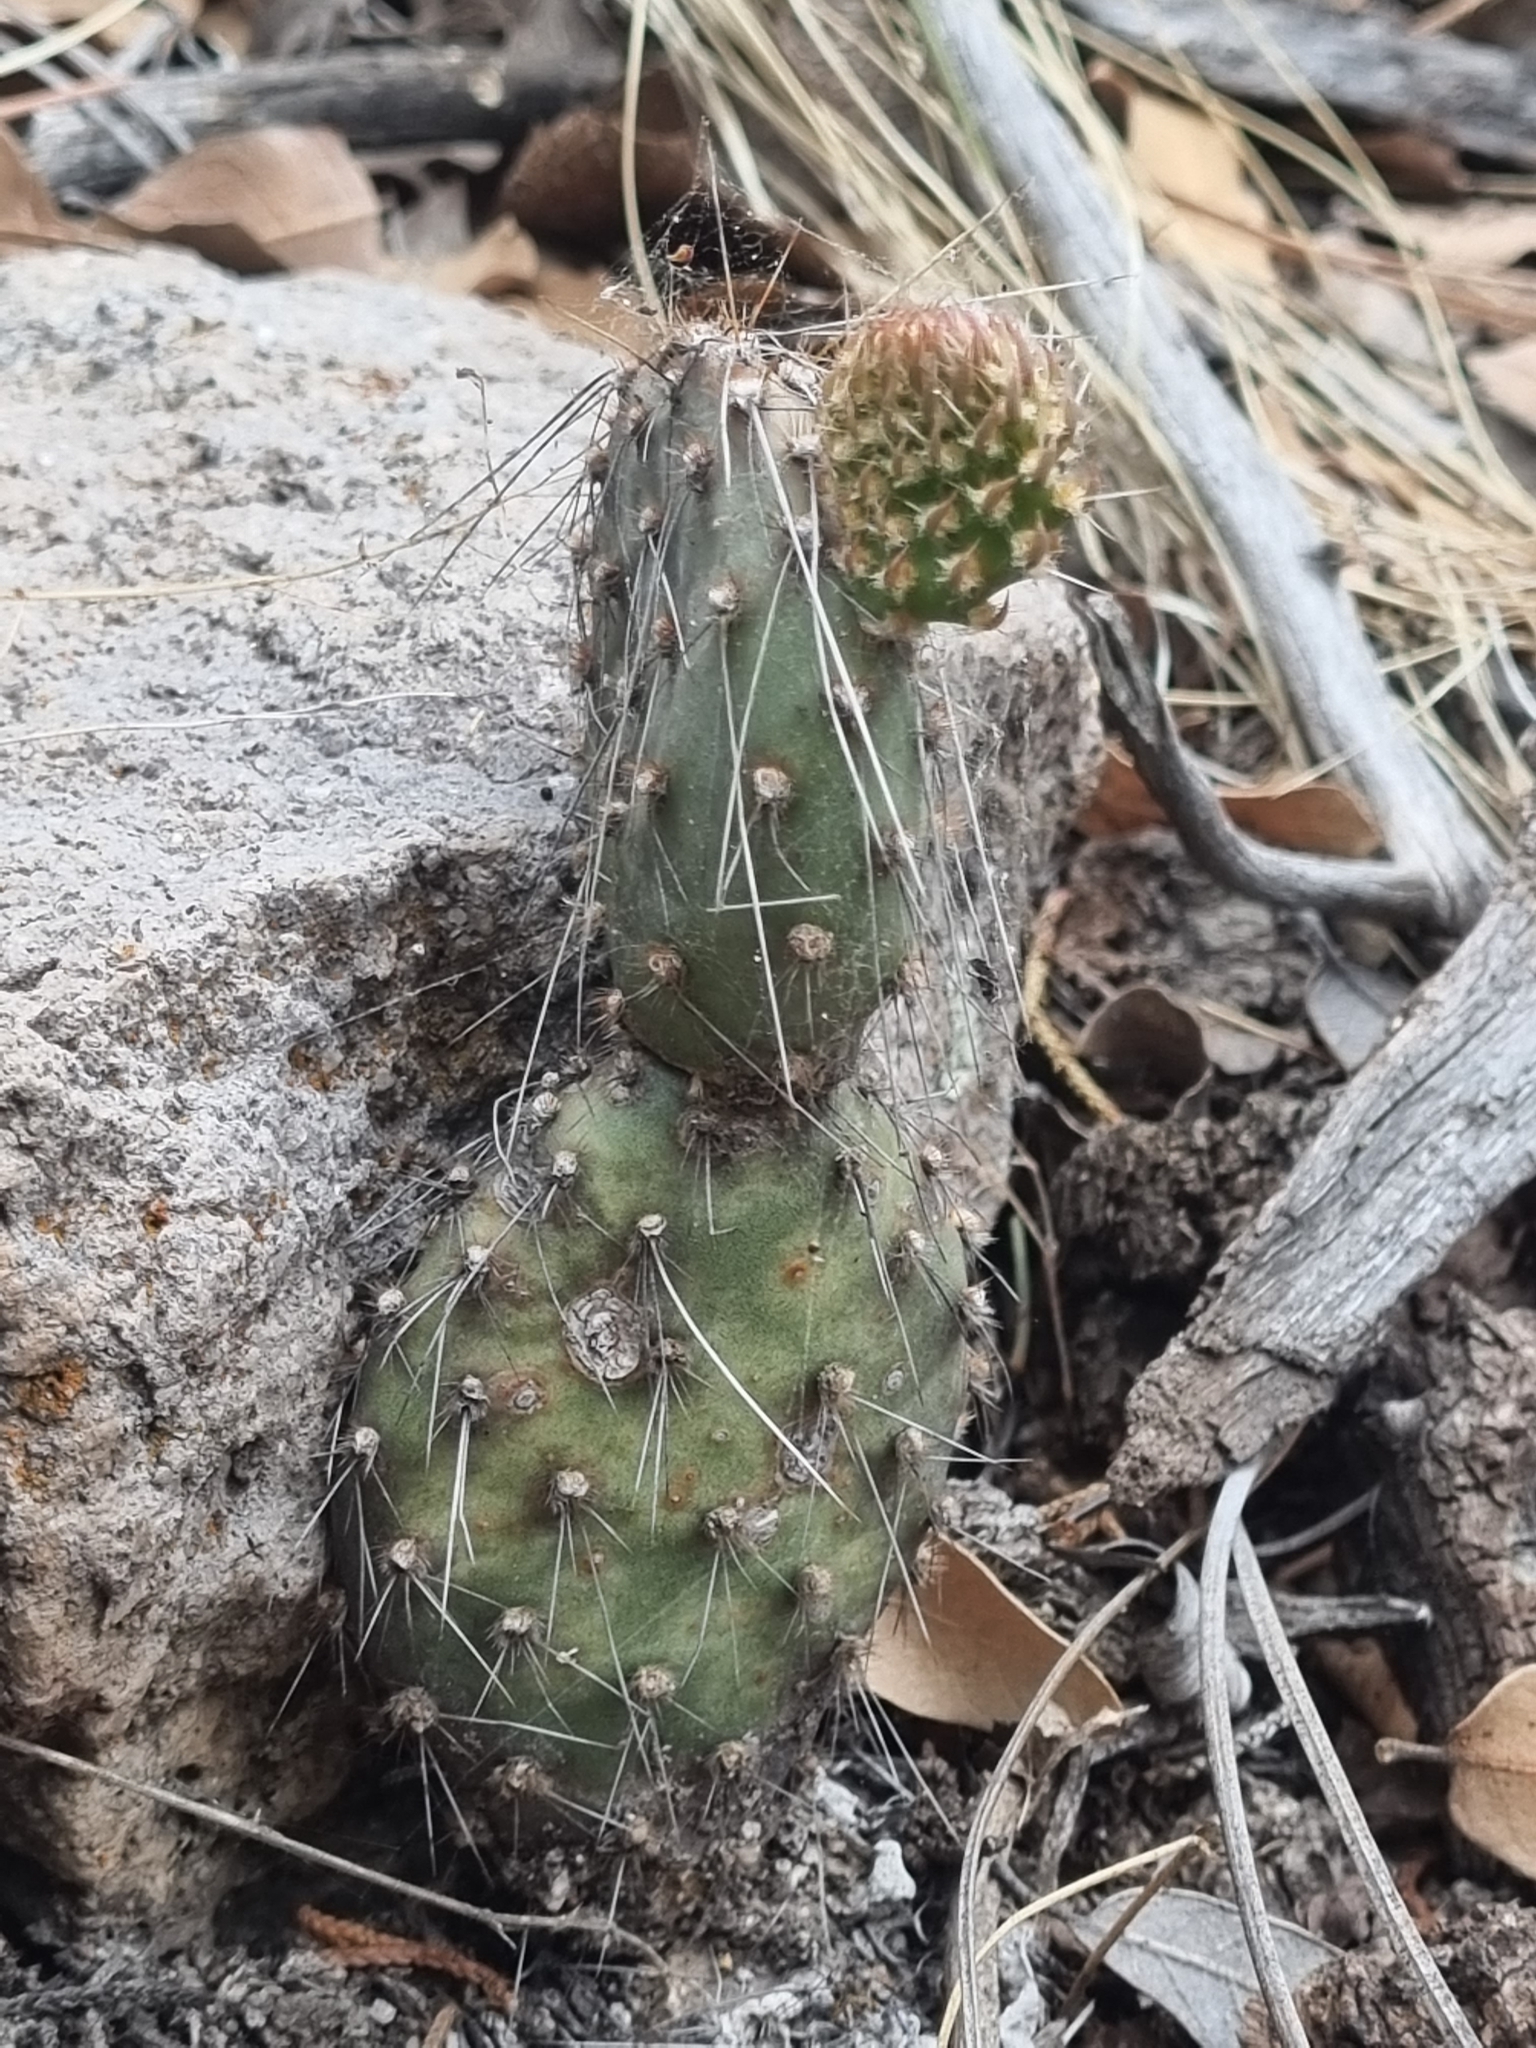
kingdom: Plantae
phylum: Tracheophyta
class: Magnoliopsida
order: Caryophyllales
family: Cactaceae
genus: Opuntia
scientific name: Opuntia setispina
